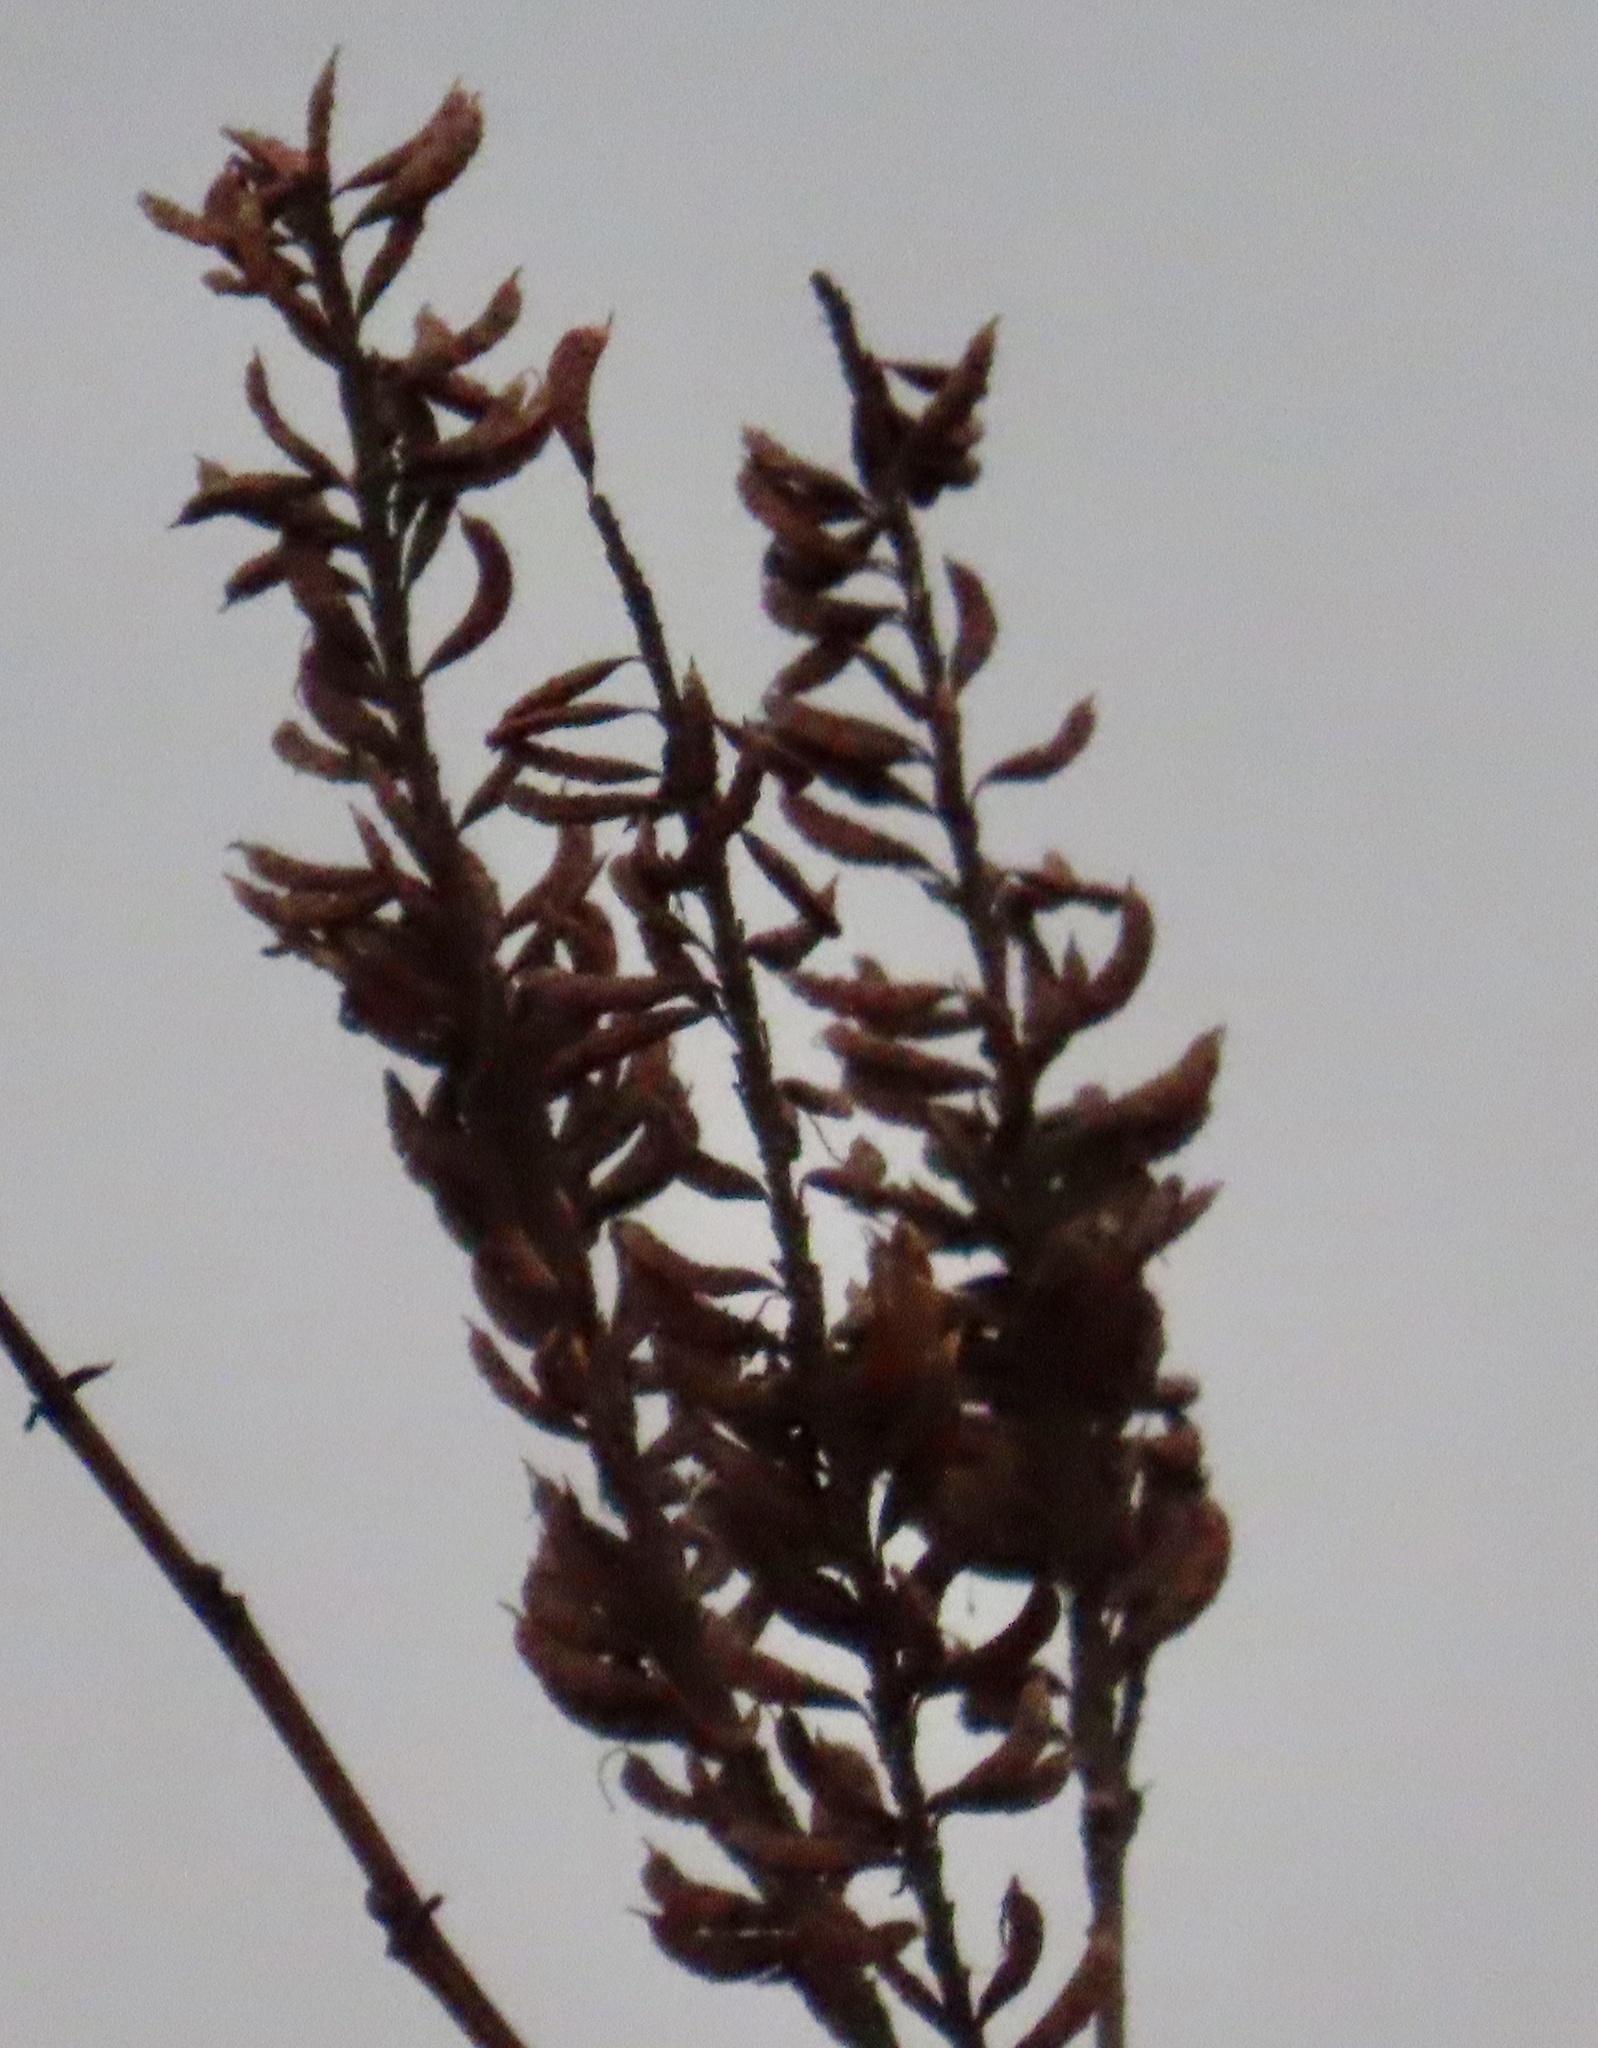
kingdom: Plantae
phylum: Tracheophyta
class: Magnoliopsida
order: Fabales
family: Fabaceae
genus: Amorpha
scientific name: Amorpha fruticosa
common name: False indigo
